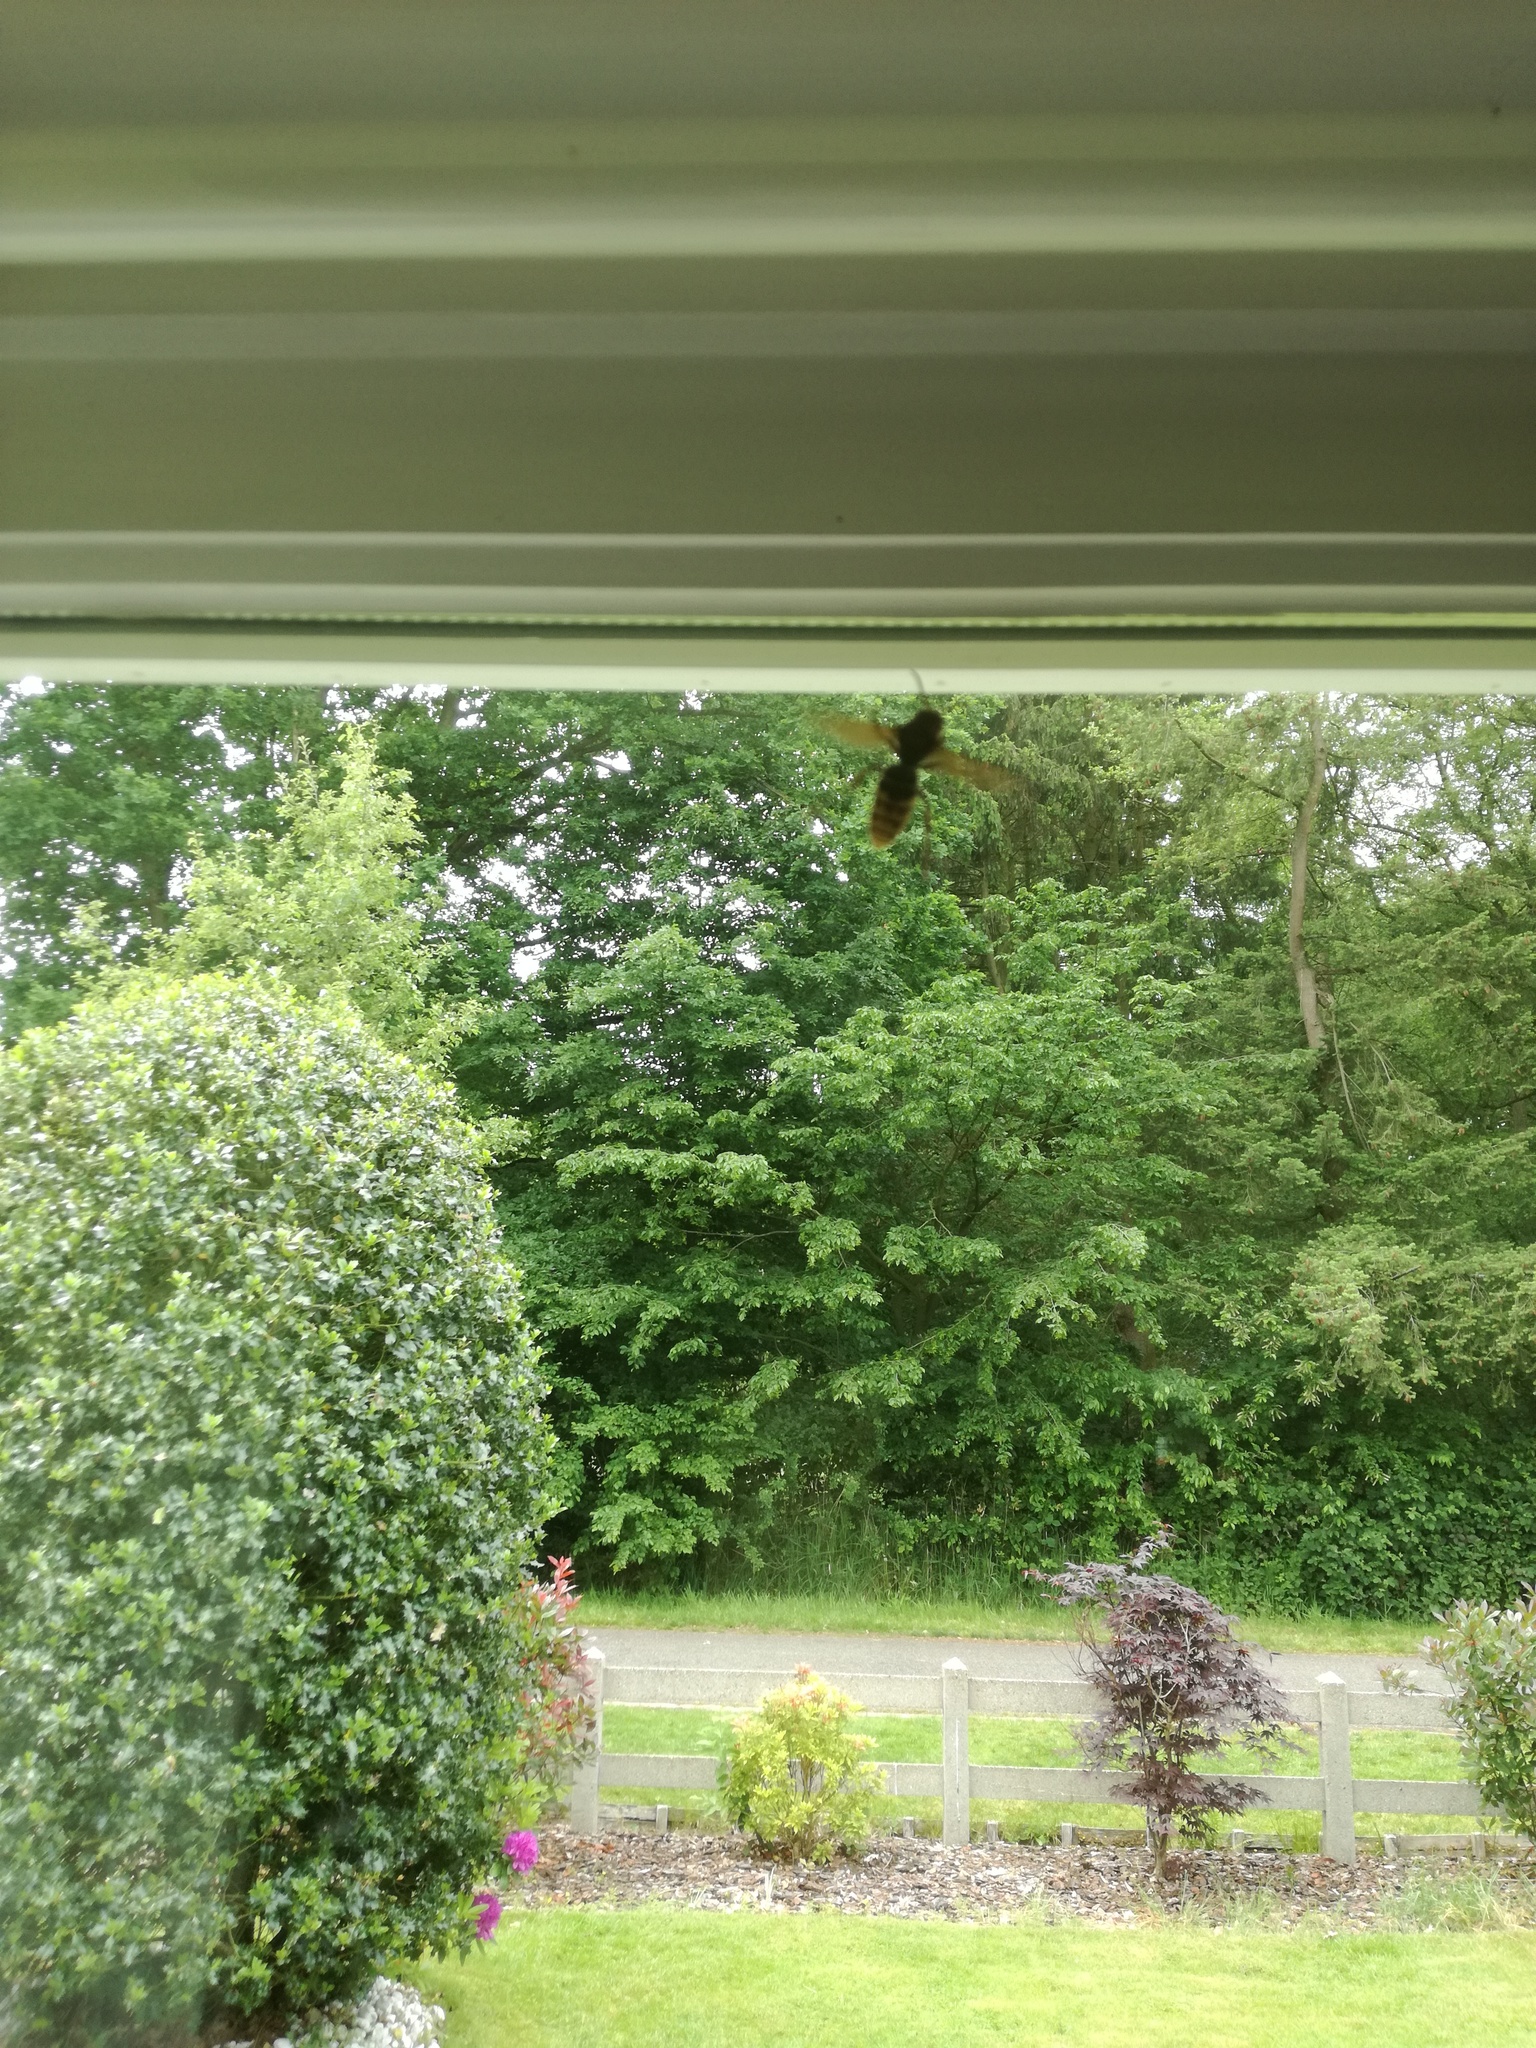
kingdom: Animalia
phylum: Arthropoda
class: Insecta
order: Hymenoptera
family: Vespidae
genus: Vespa
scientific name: Vespa crabro
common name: Hornet
